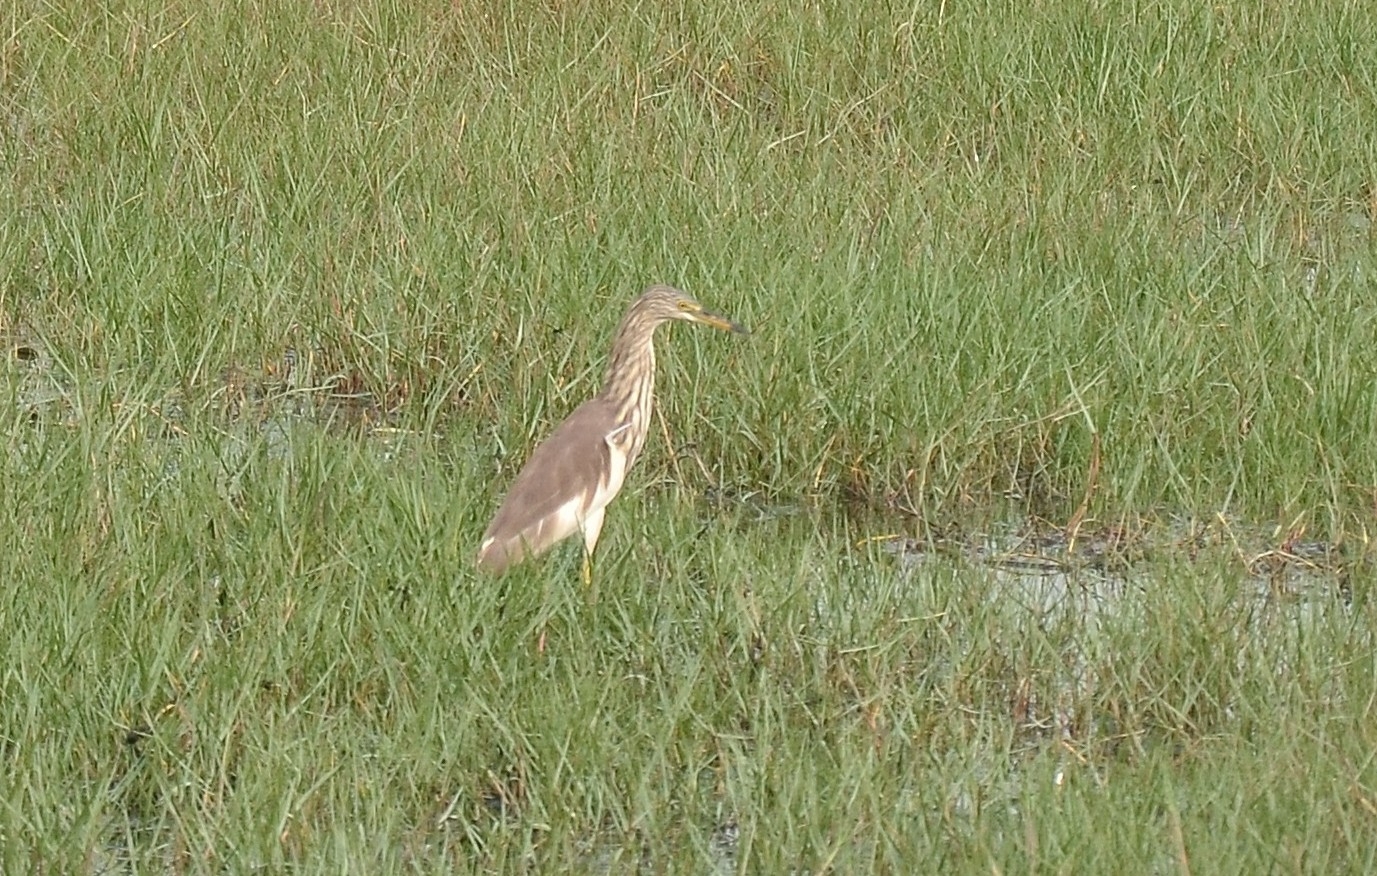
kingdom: Animalia
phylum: Chordata
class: Aves
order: Pelecaniformes
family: Ardeidae
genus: Ardeola
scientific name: Ardeola grayii
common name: Indian pond heron
